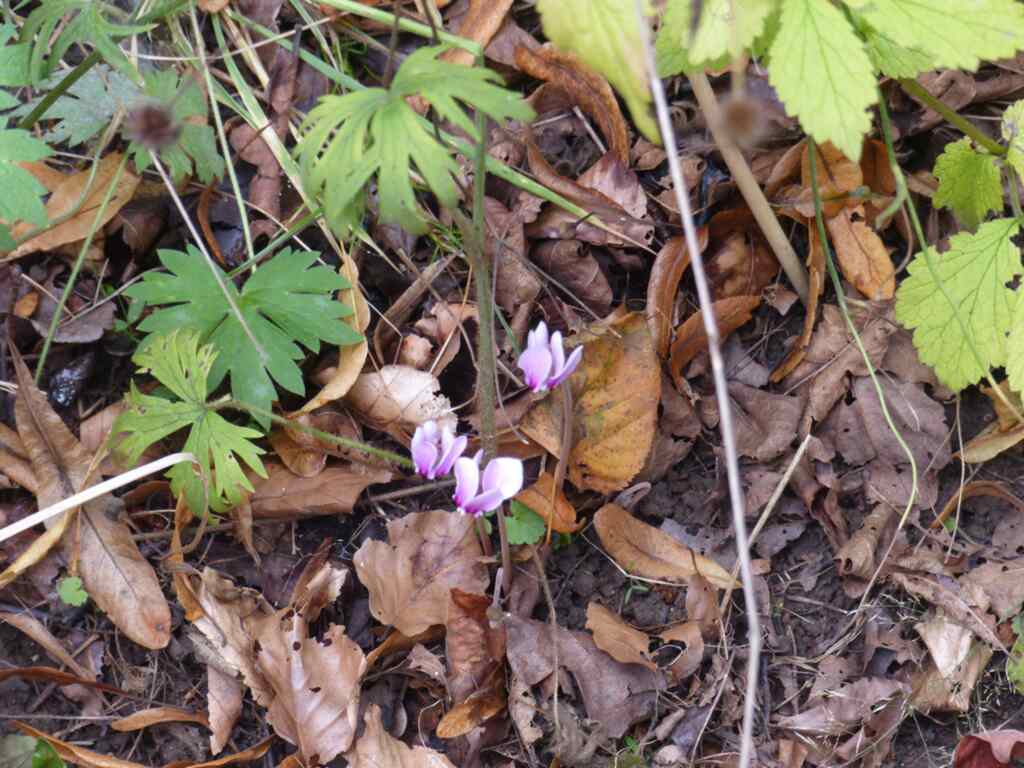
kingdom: Plantae
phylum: Tracheophyta
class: Magnoliopsida
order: Ericales
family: Primulaceae
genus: Cyclamen
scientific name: Cyclamen hederifolium
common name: Sowbread
